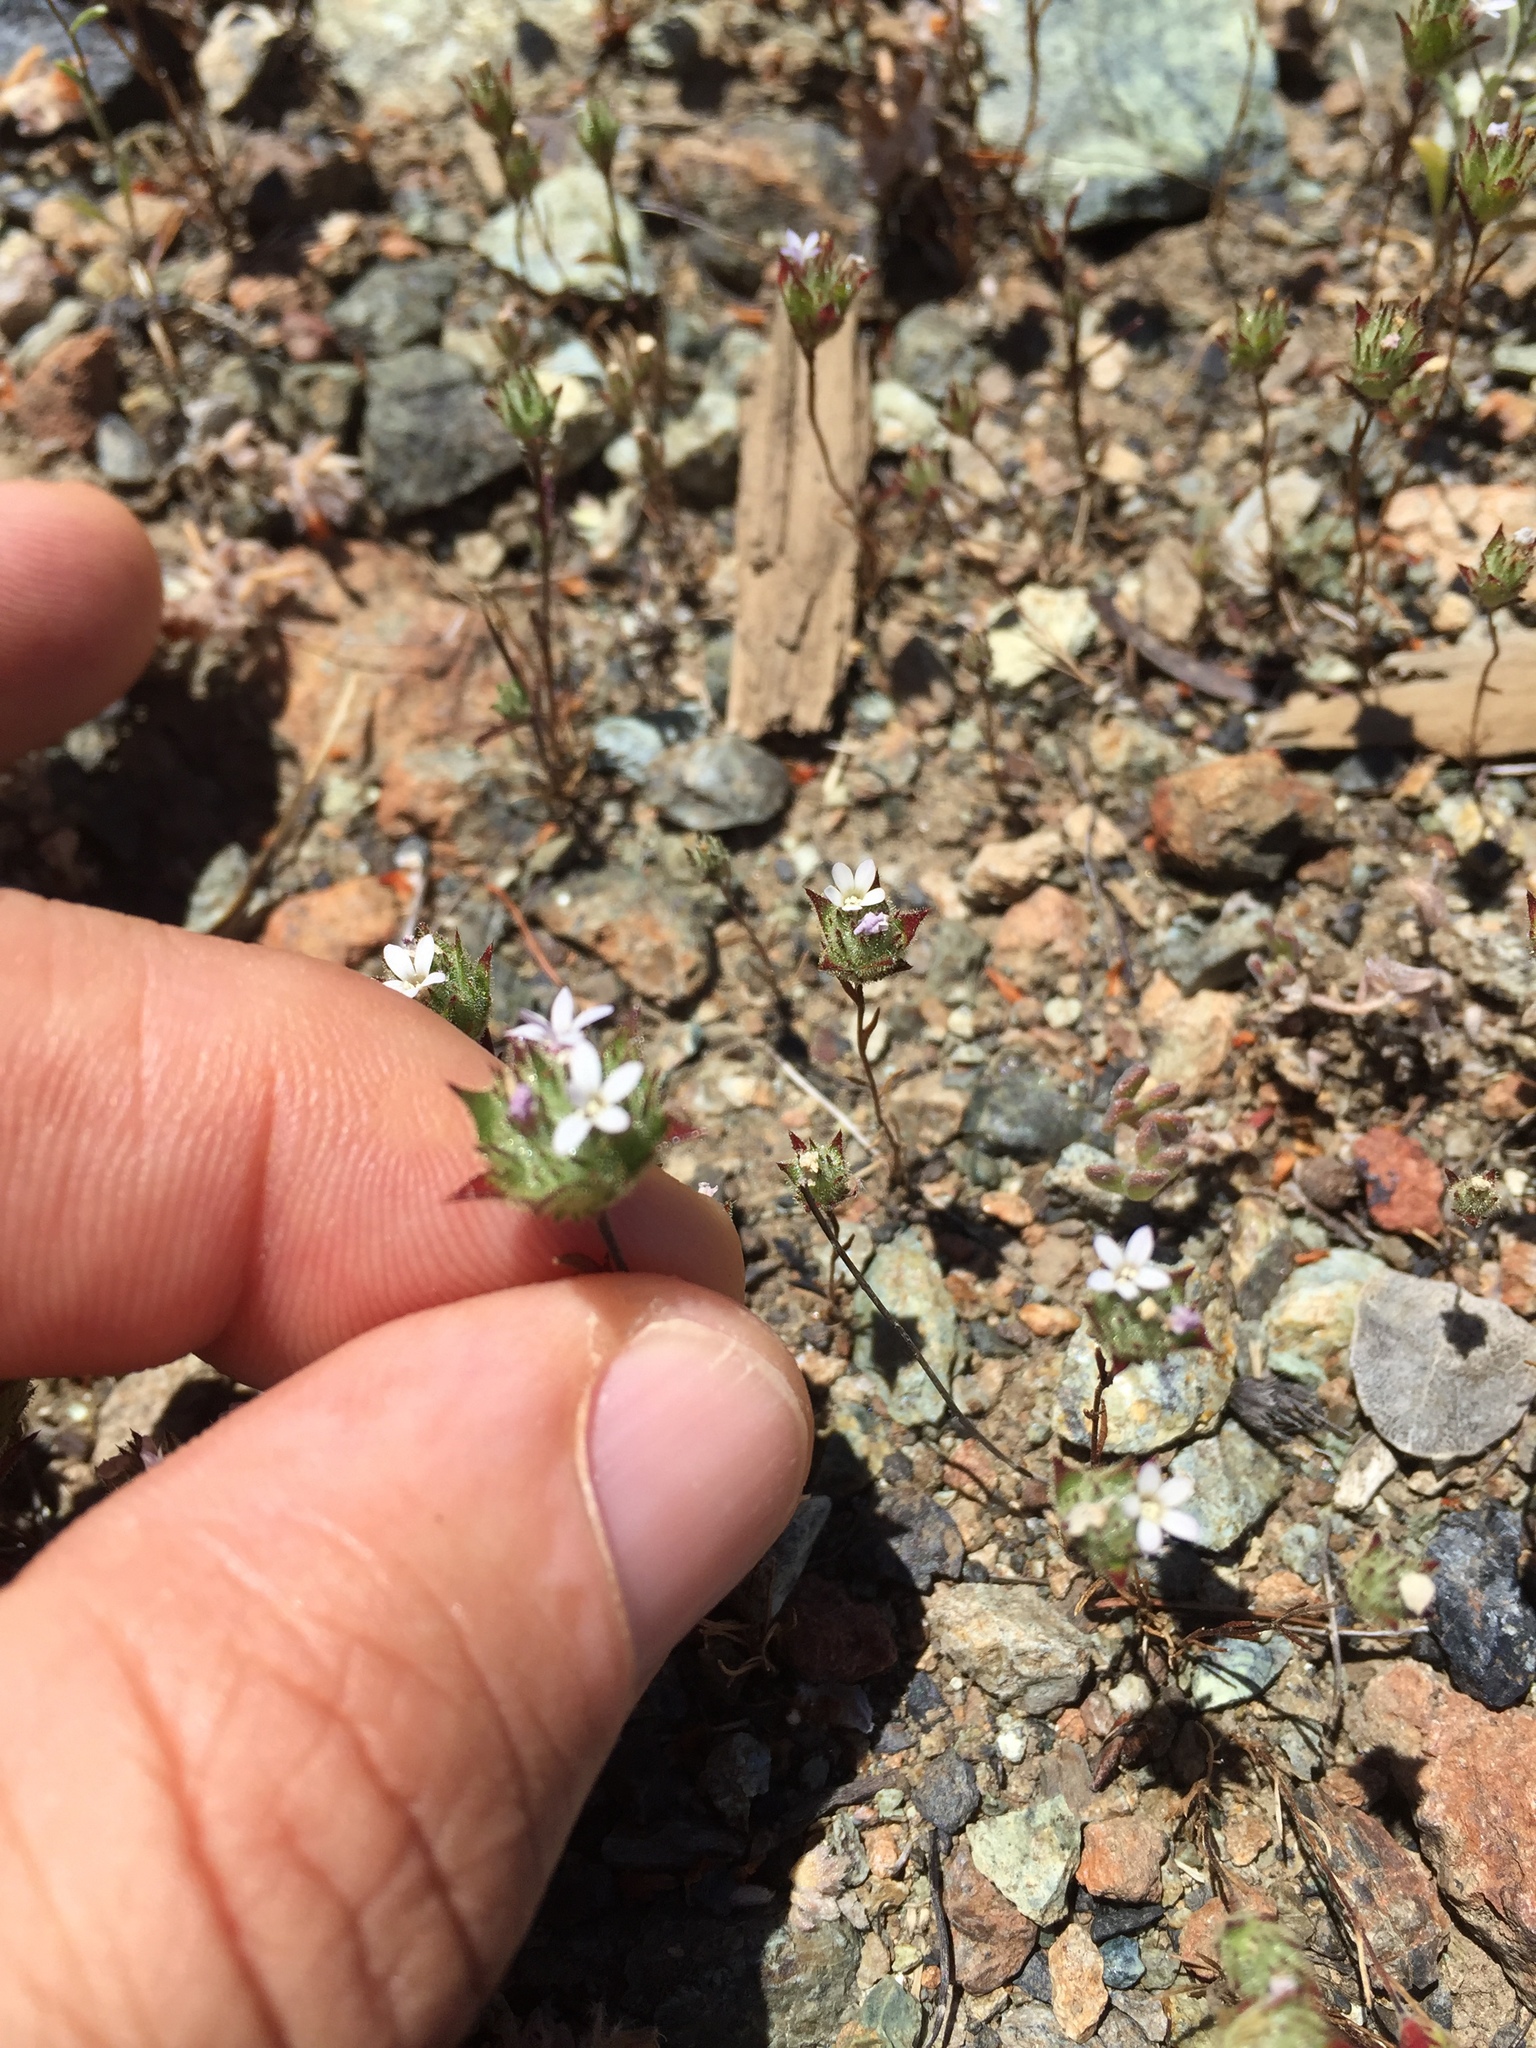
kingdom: Plantae
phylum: Tracheophyta
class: Magnoliopsida
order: Ericales
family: Polemoniaceae
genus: Navarretia
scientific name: Navarretia rosulata
